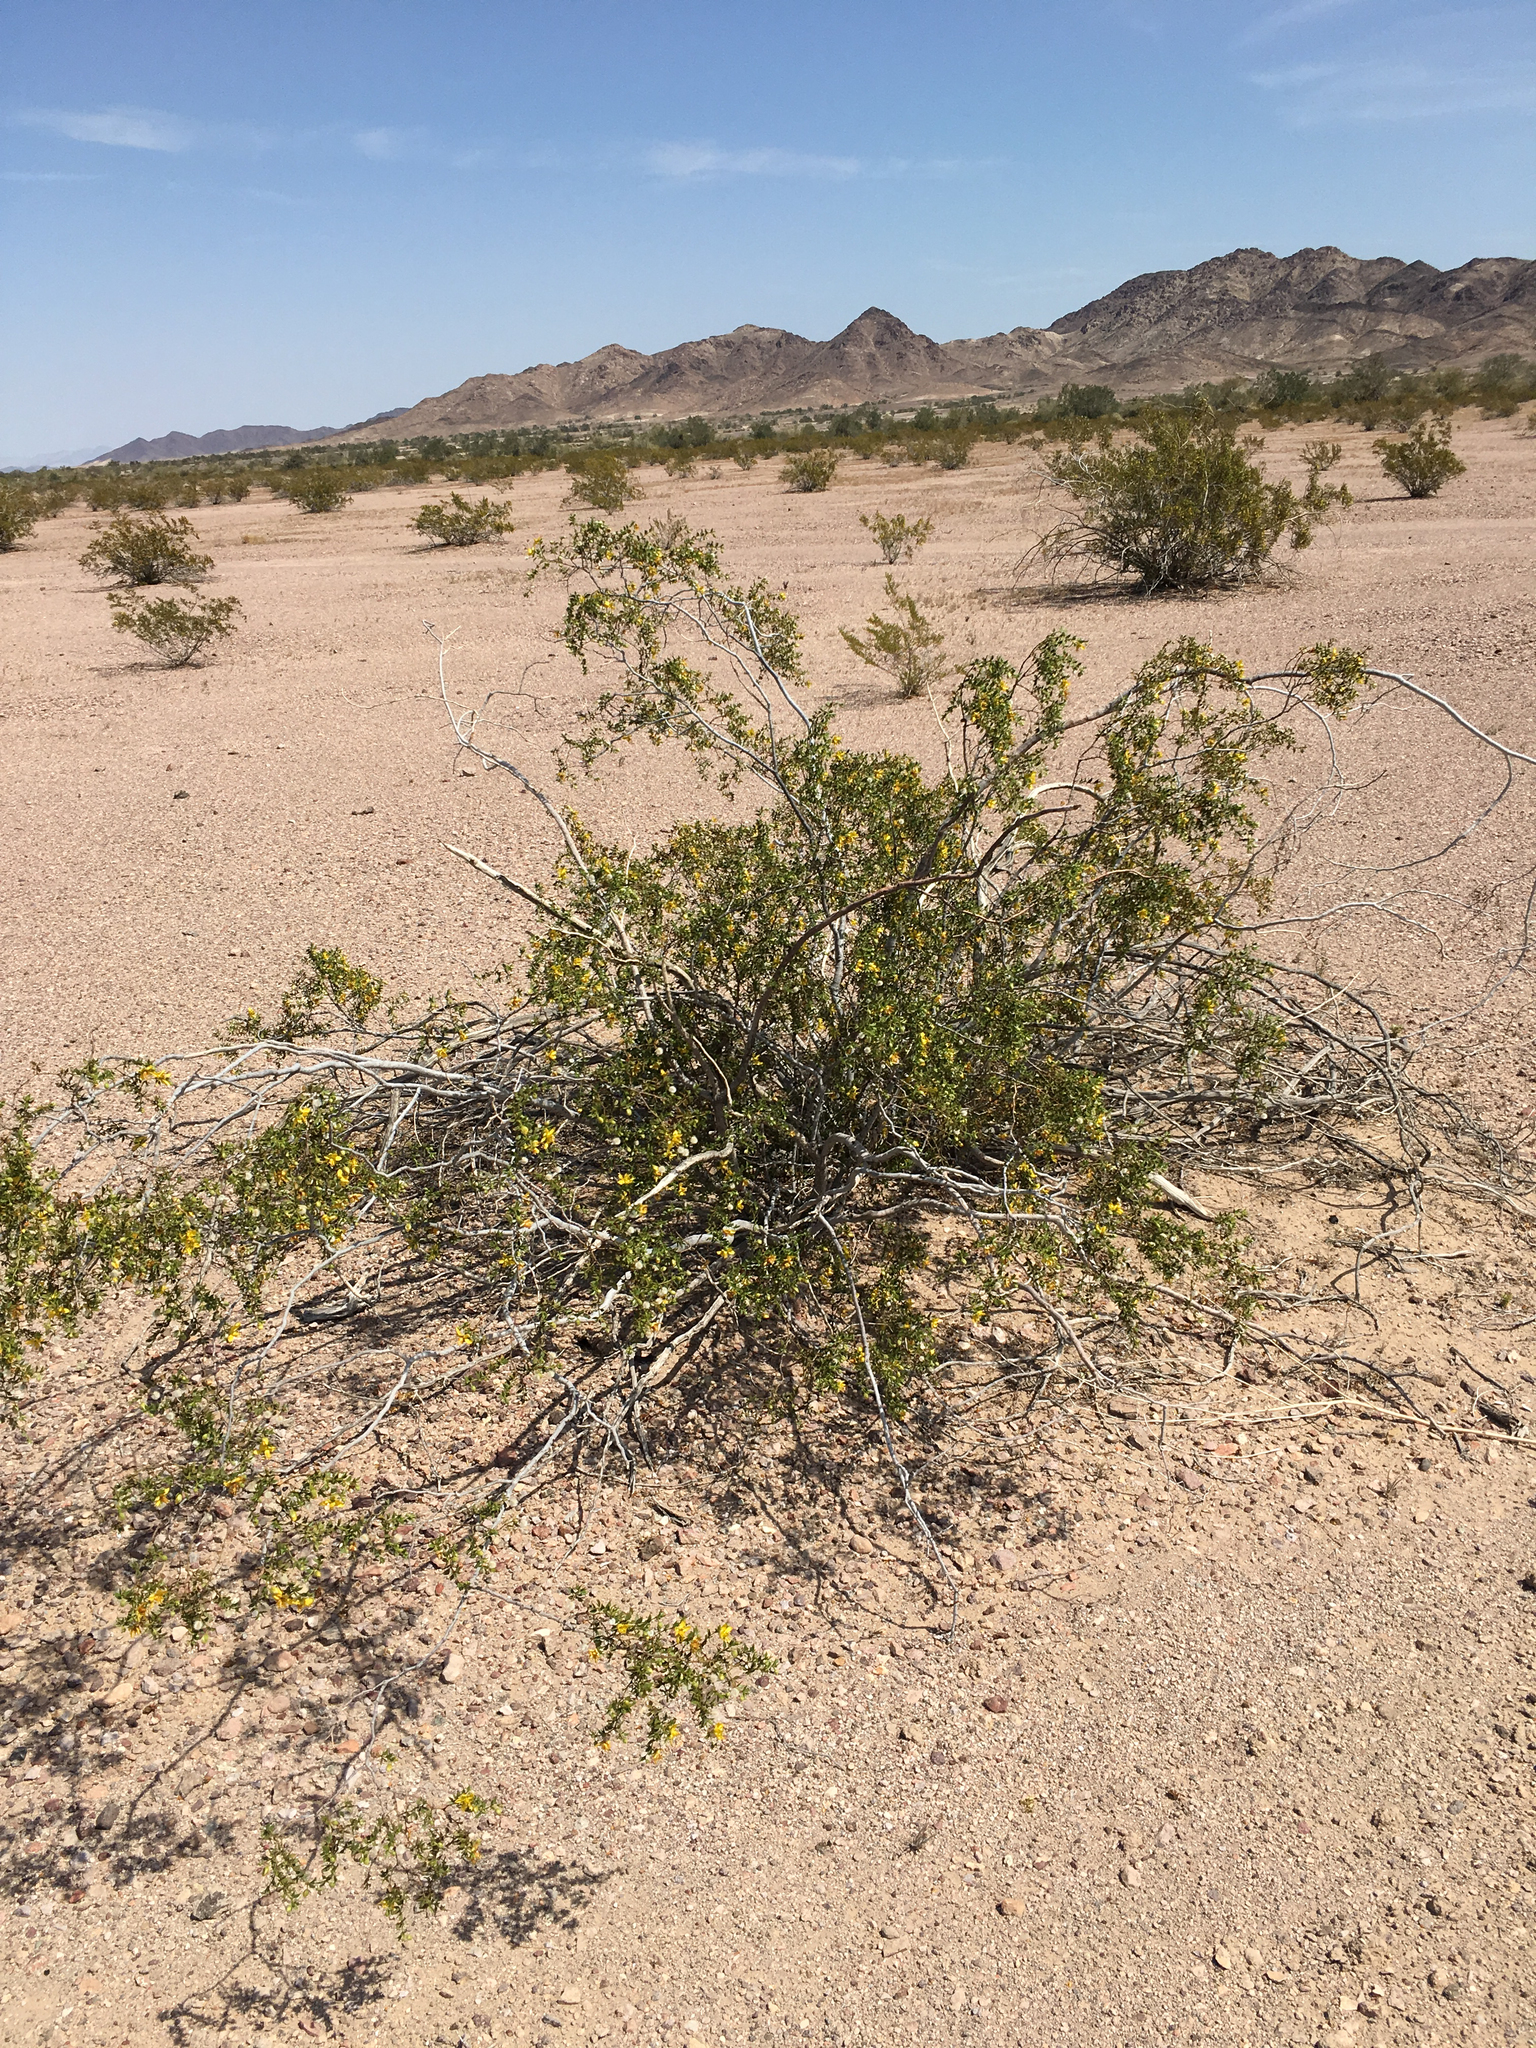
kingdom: Plantae
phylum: Tracheophyta
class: Magnoliopsida
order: Zygophyllales
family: Zygophyllaceae
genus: Larrea
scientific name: Larrea tridentata
